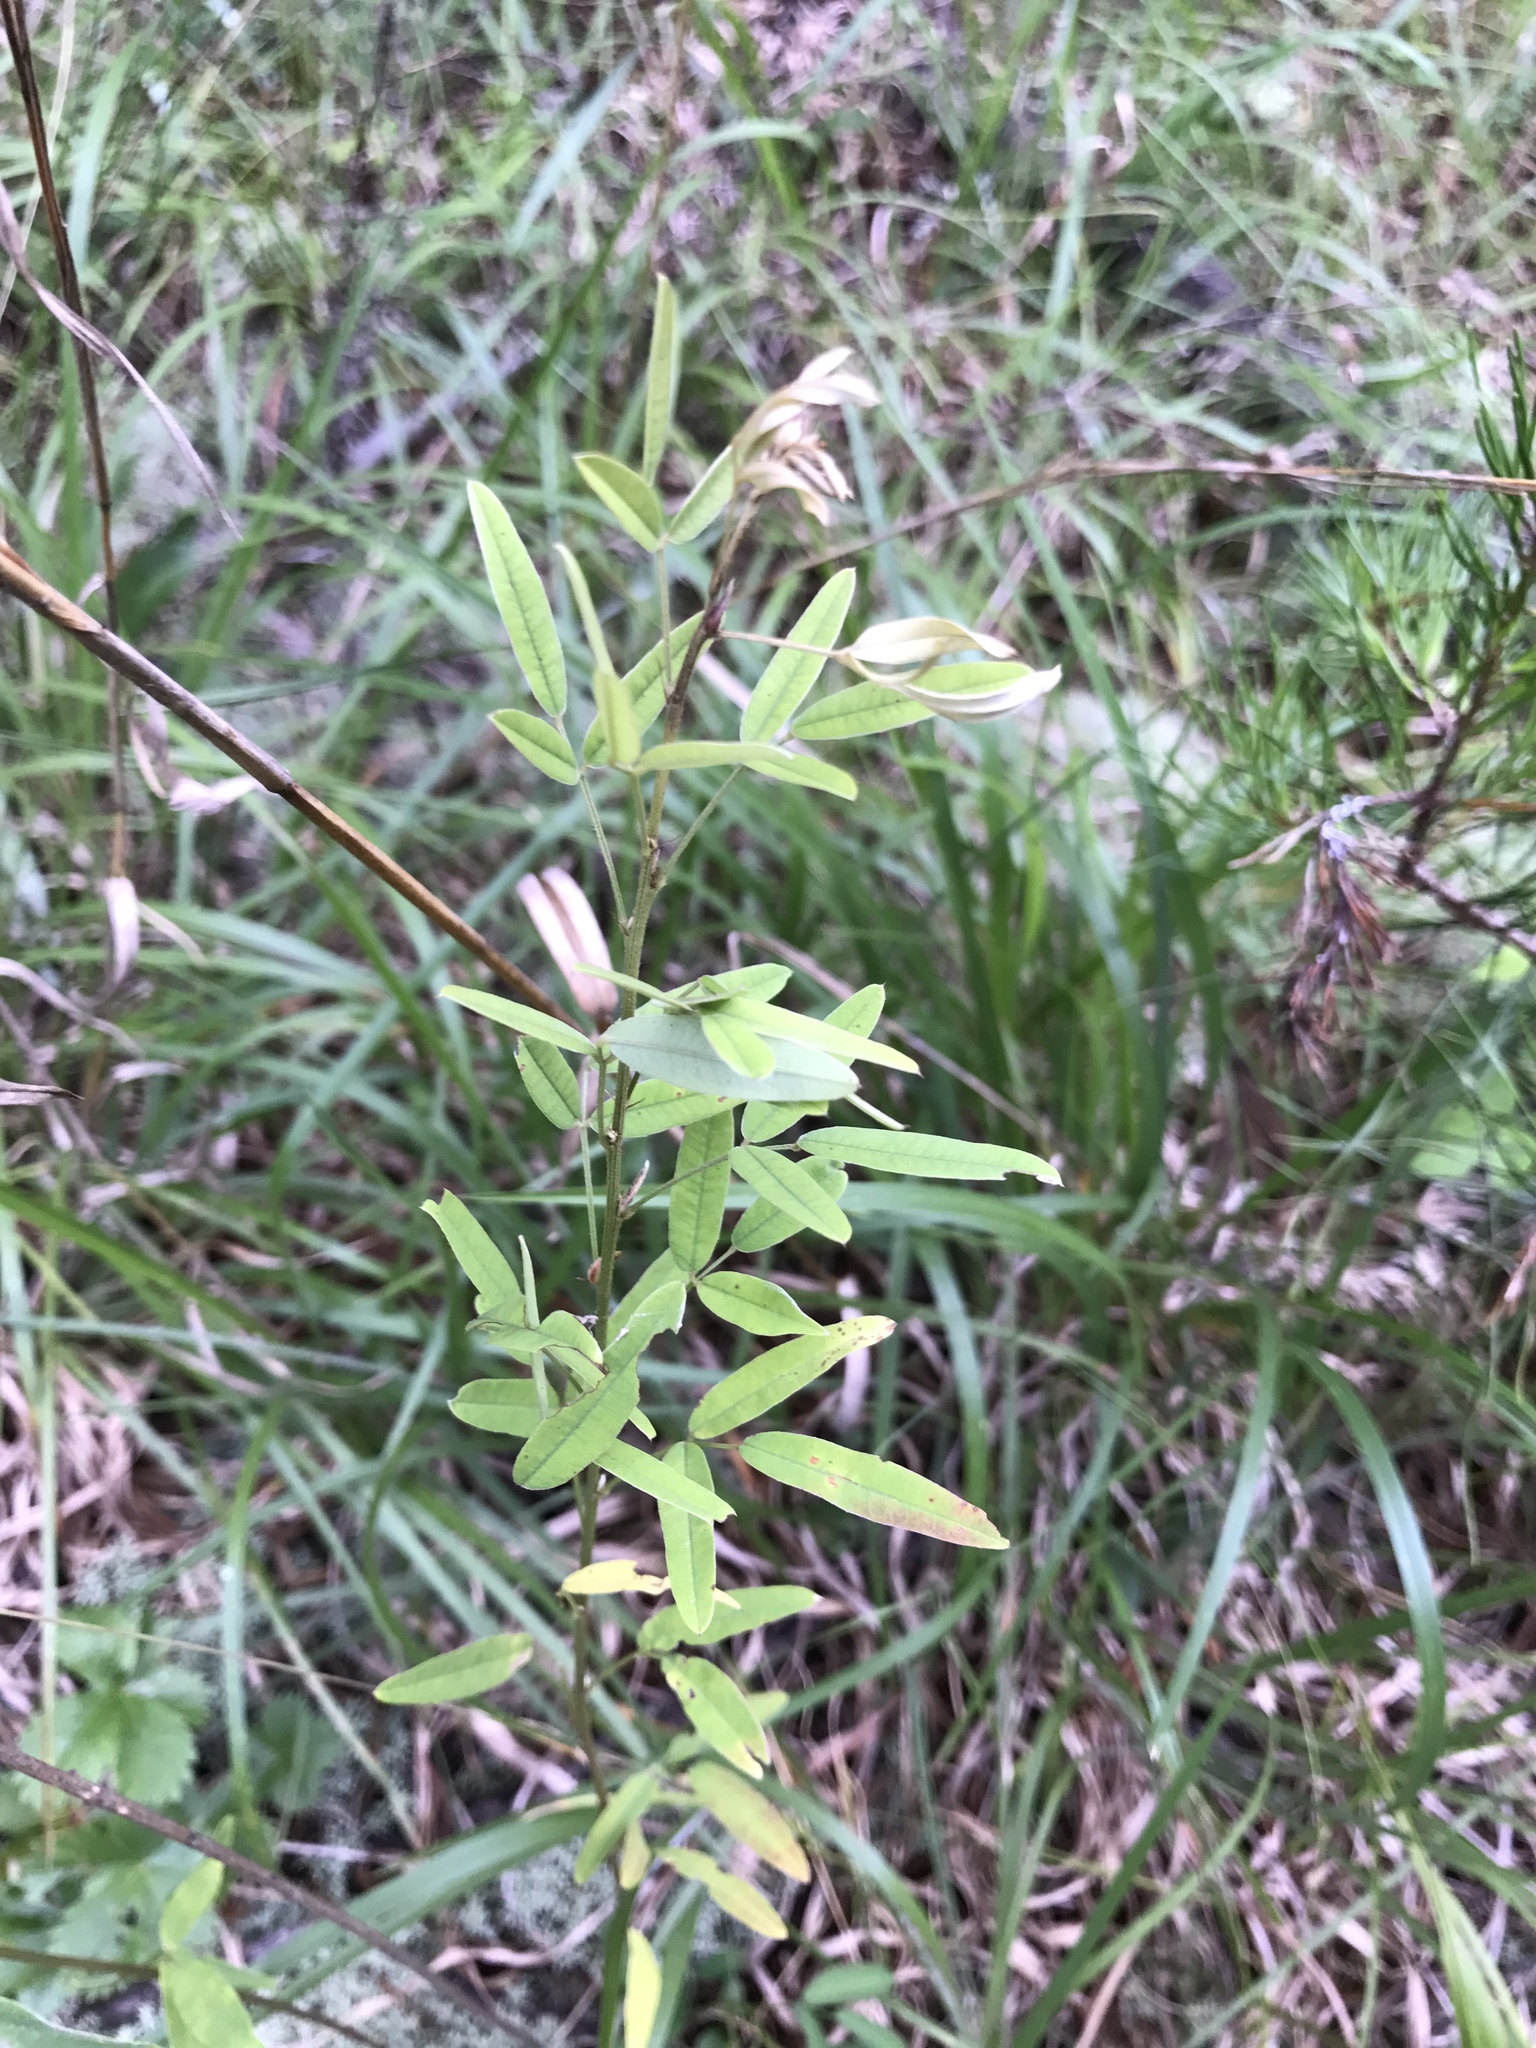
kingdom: Plantae
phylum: Tracheophyta
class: Magnoliopsida
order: Fabales
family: Fabaceae
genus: Lespedeza
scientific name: Lespedeza virginica
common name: Slender bush-clover
